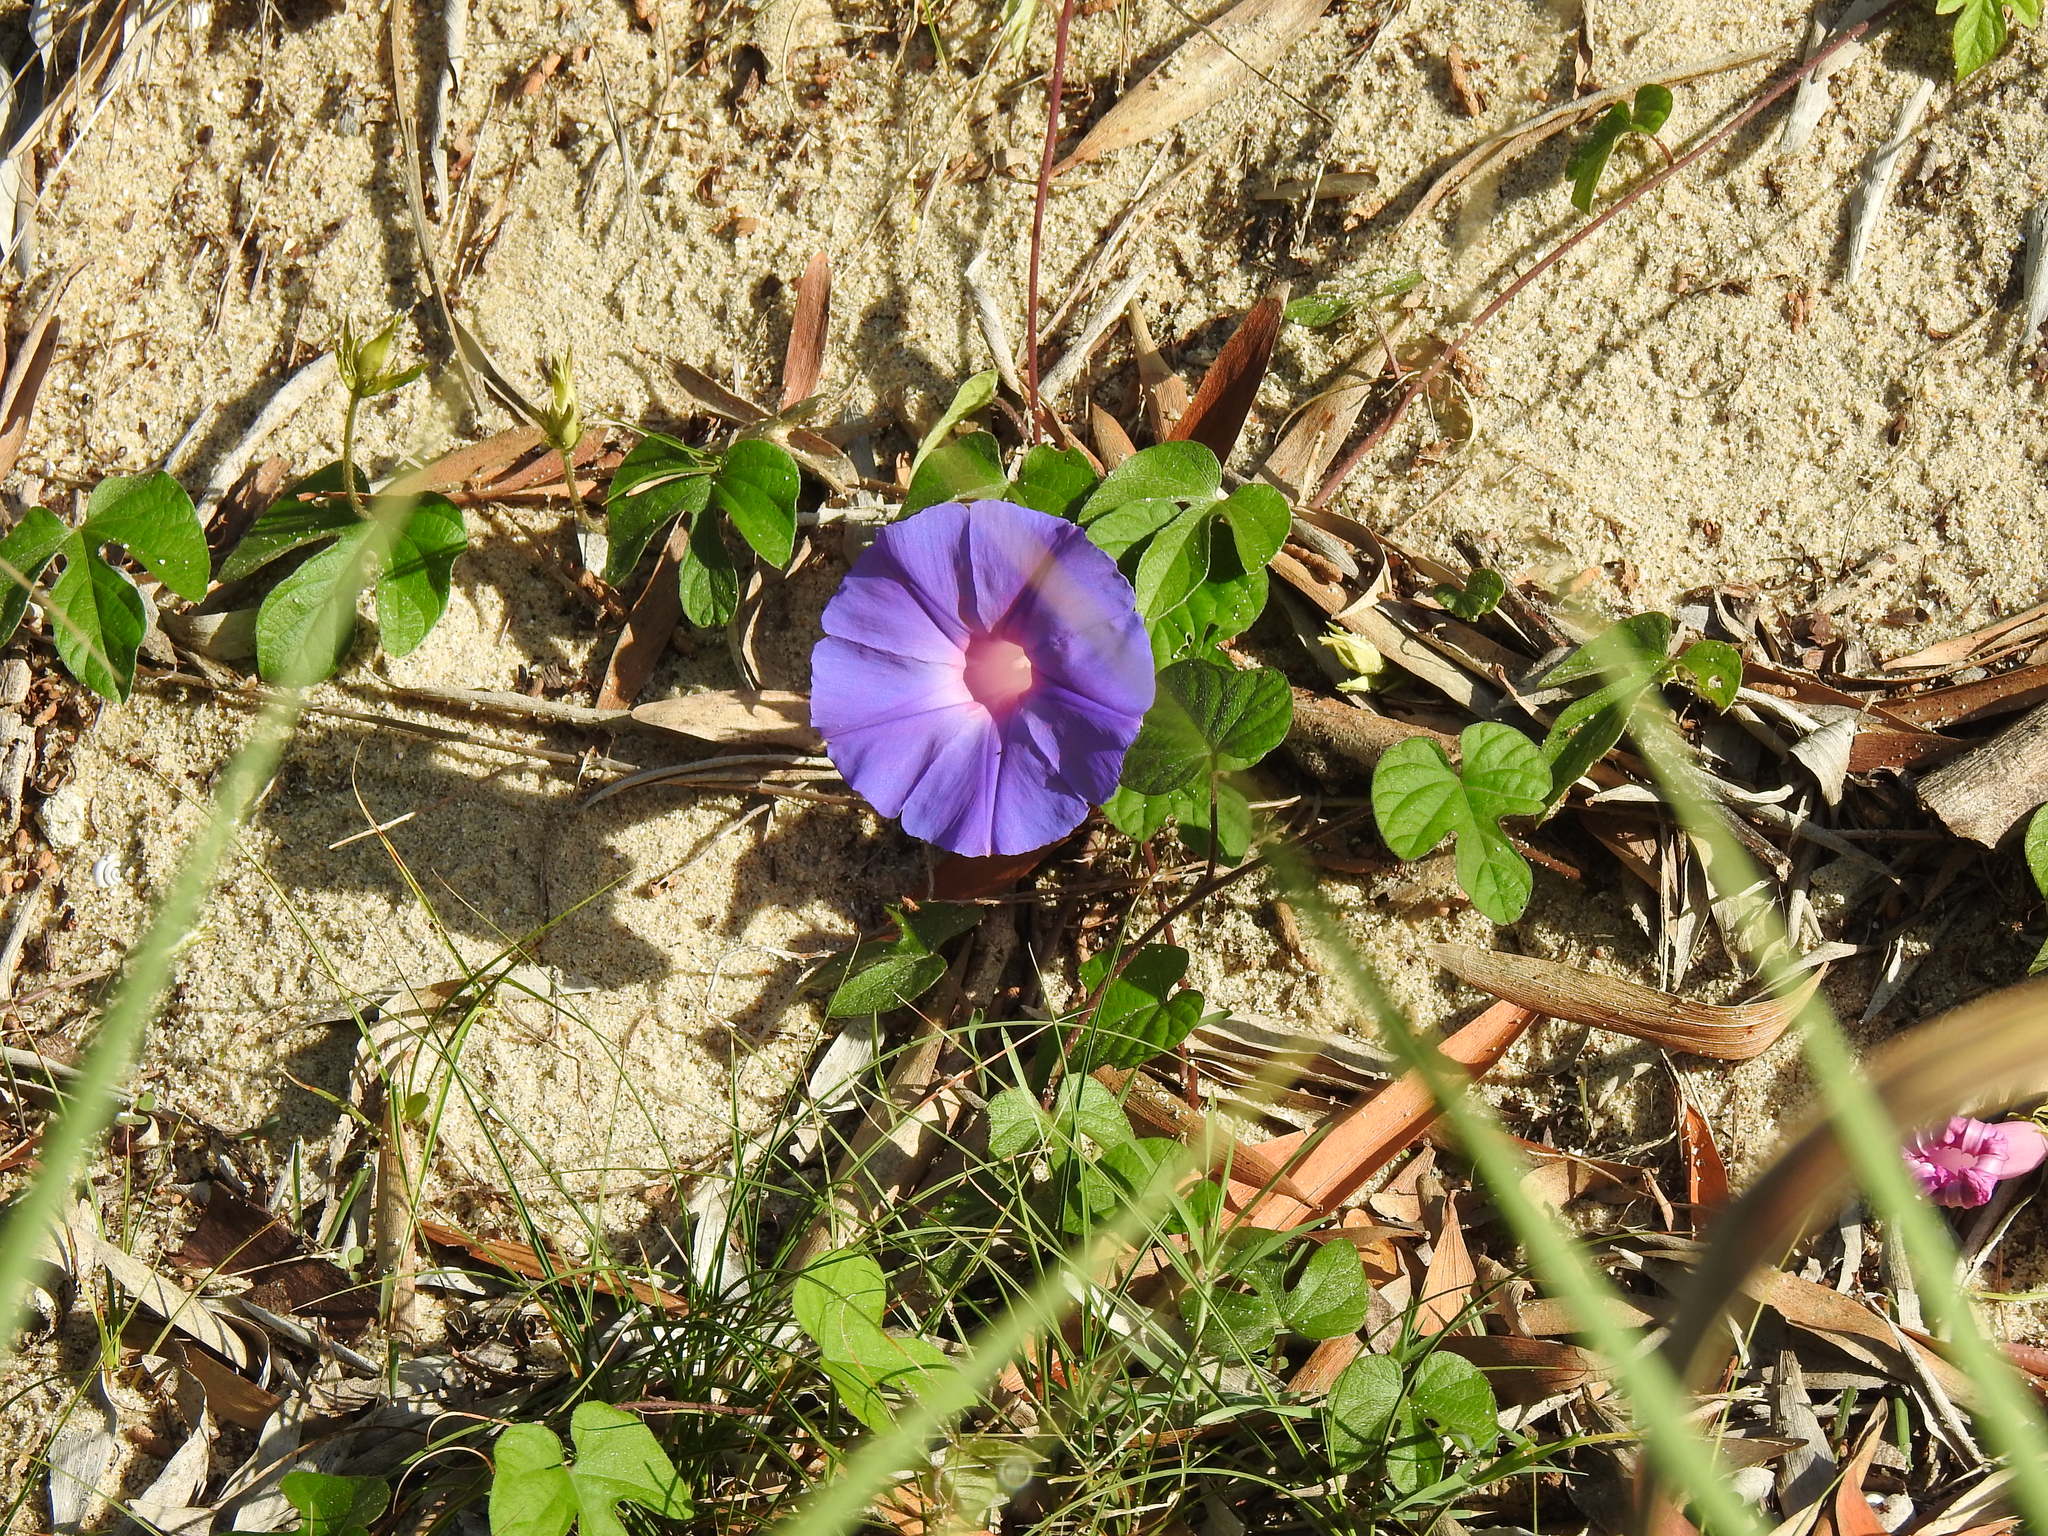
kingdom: Plantae
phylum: Tracheophyta
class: Magnoliopsida
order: Solanales
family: Convolvulaceae
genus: Ipomoea
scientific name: Ipomoea indica
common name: Blue dawnflower
